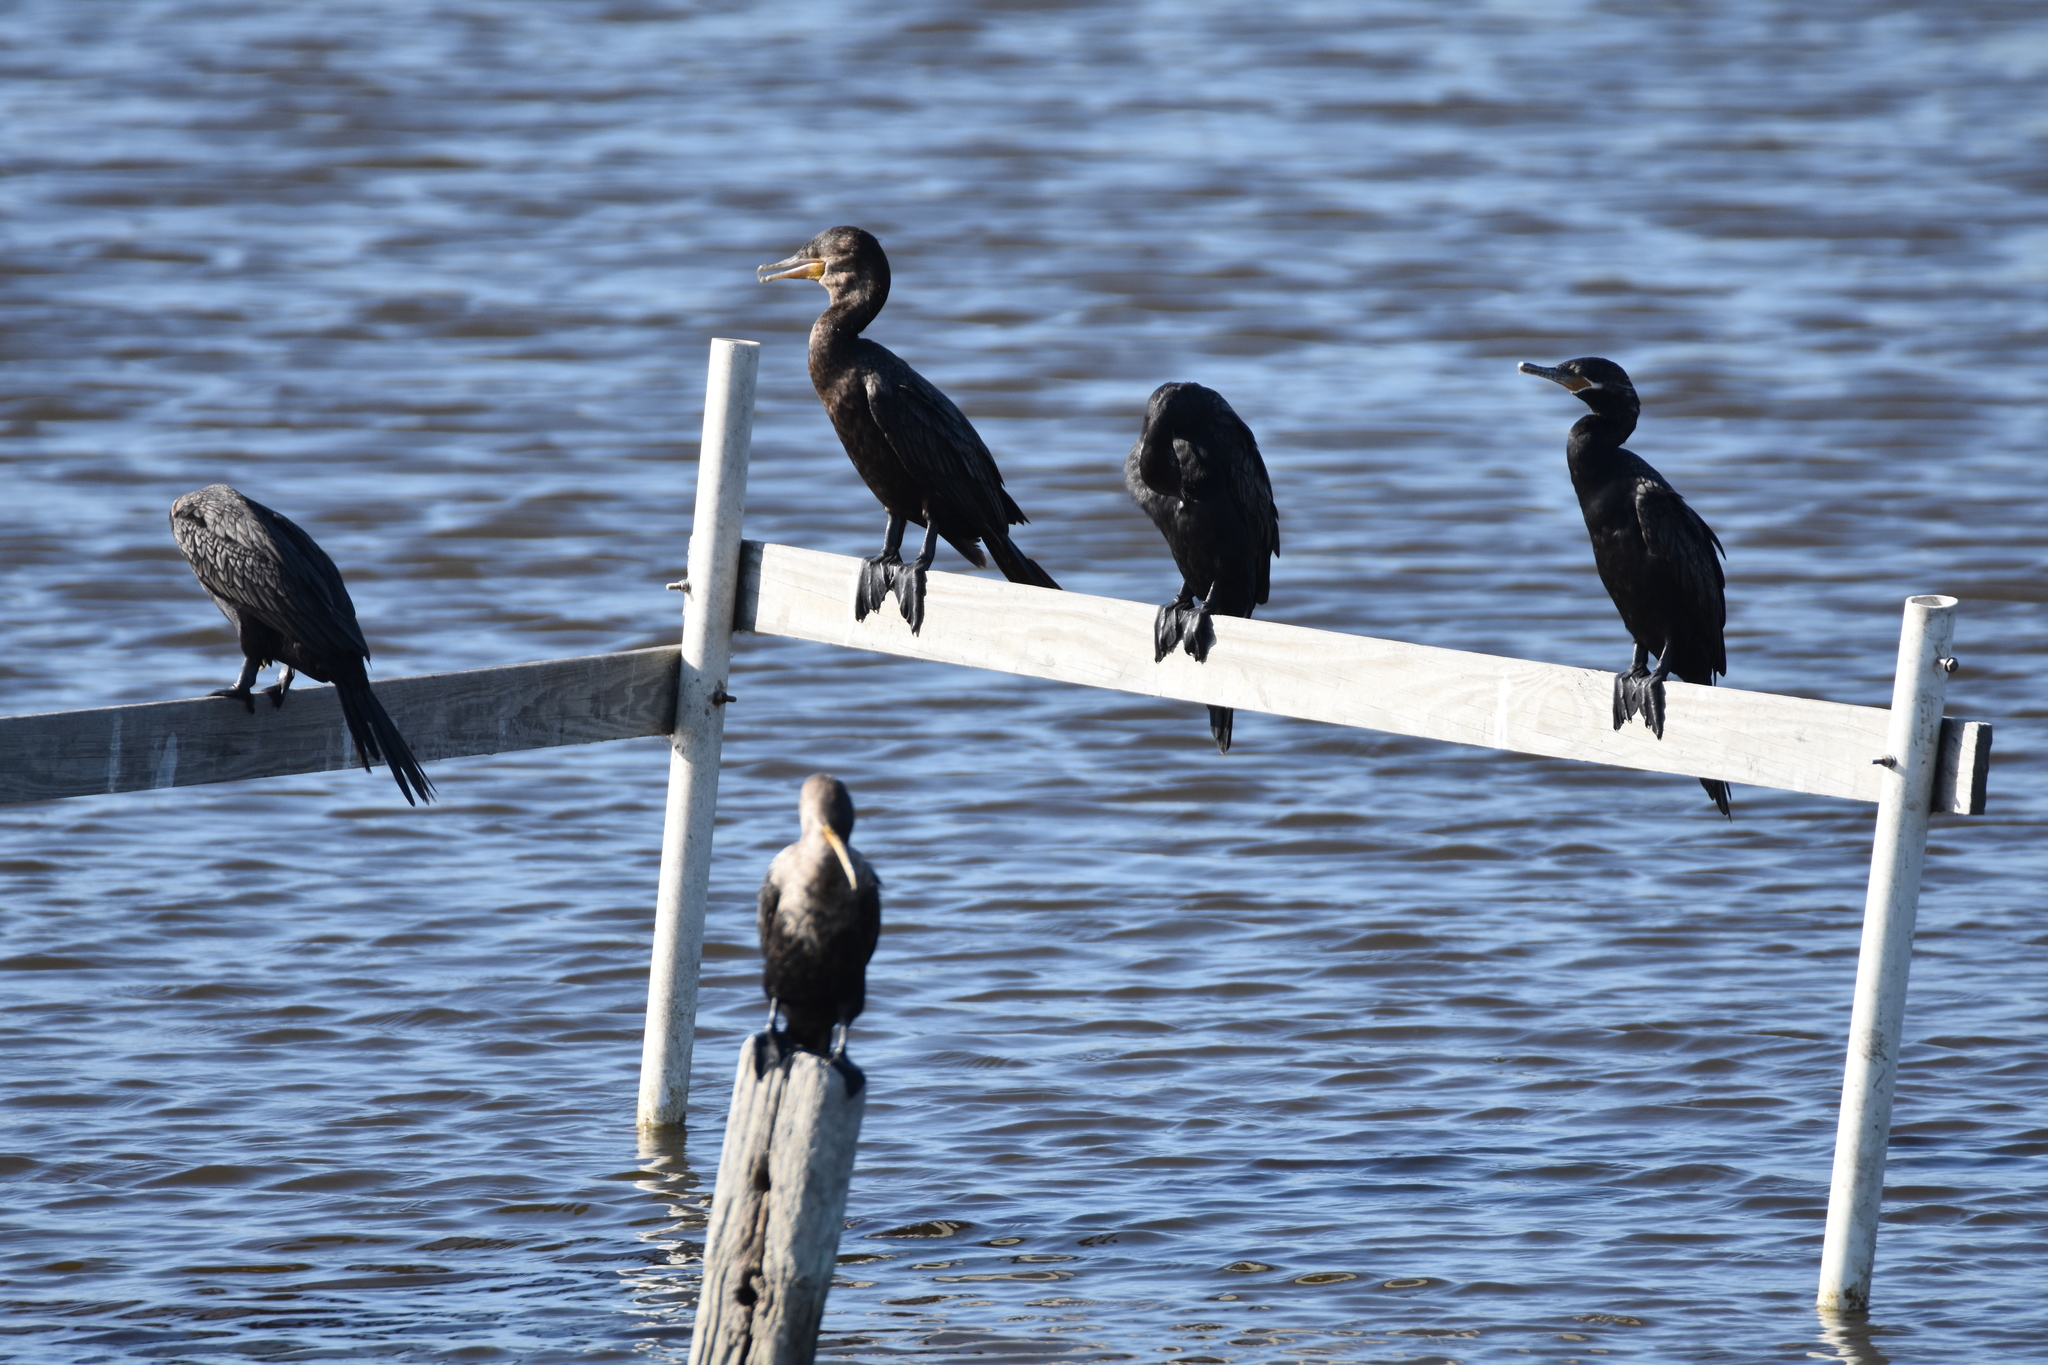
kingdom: Animalia
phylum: Chordata
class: Aves
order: Suliformes
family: Phalacrocoracidae
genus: Phalacrocorax
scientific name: Phalacrocorax brasilianus
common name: Neotropic cormorant
